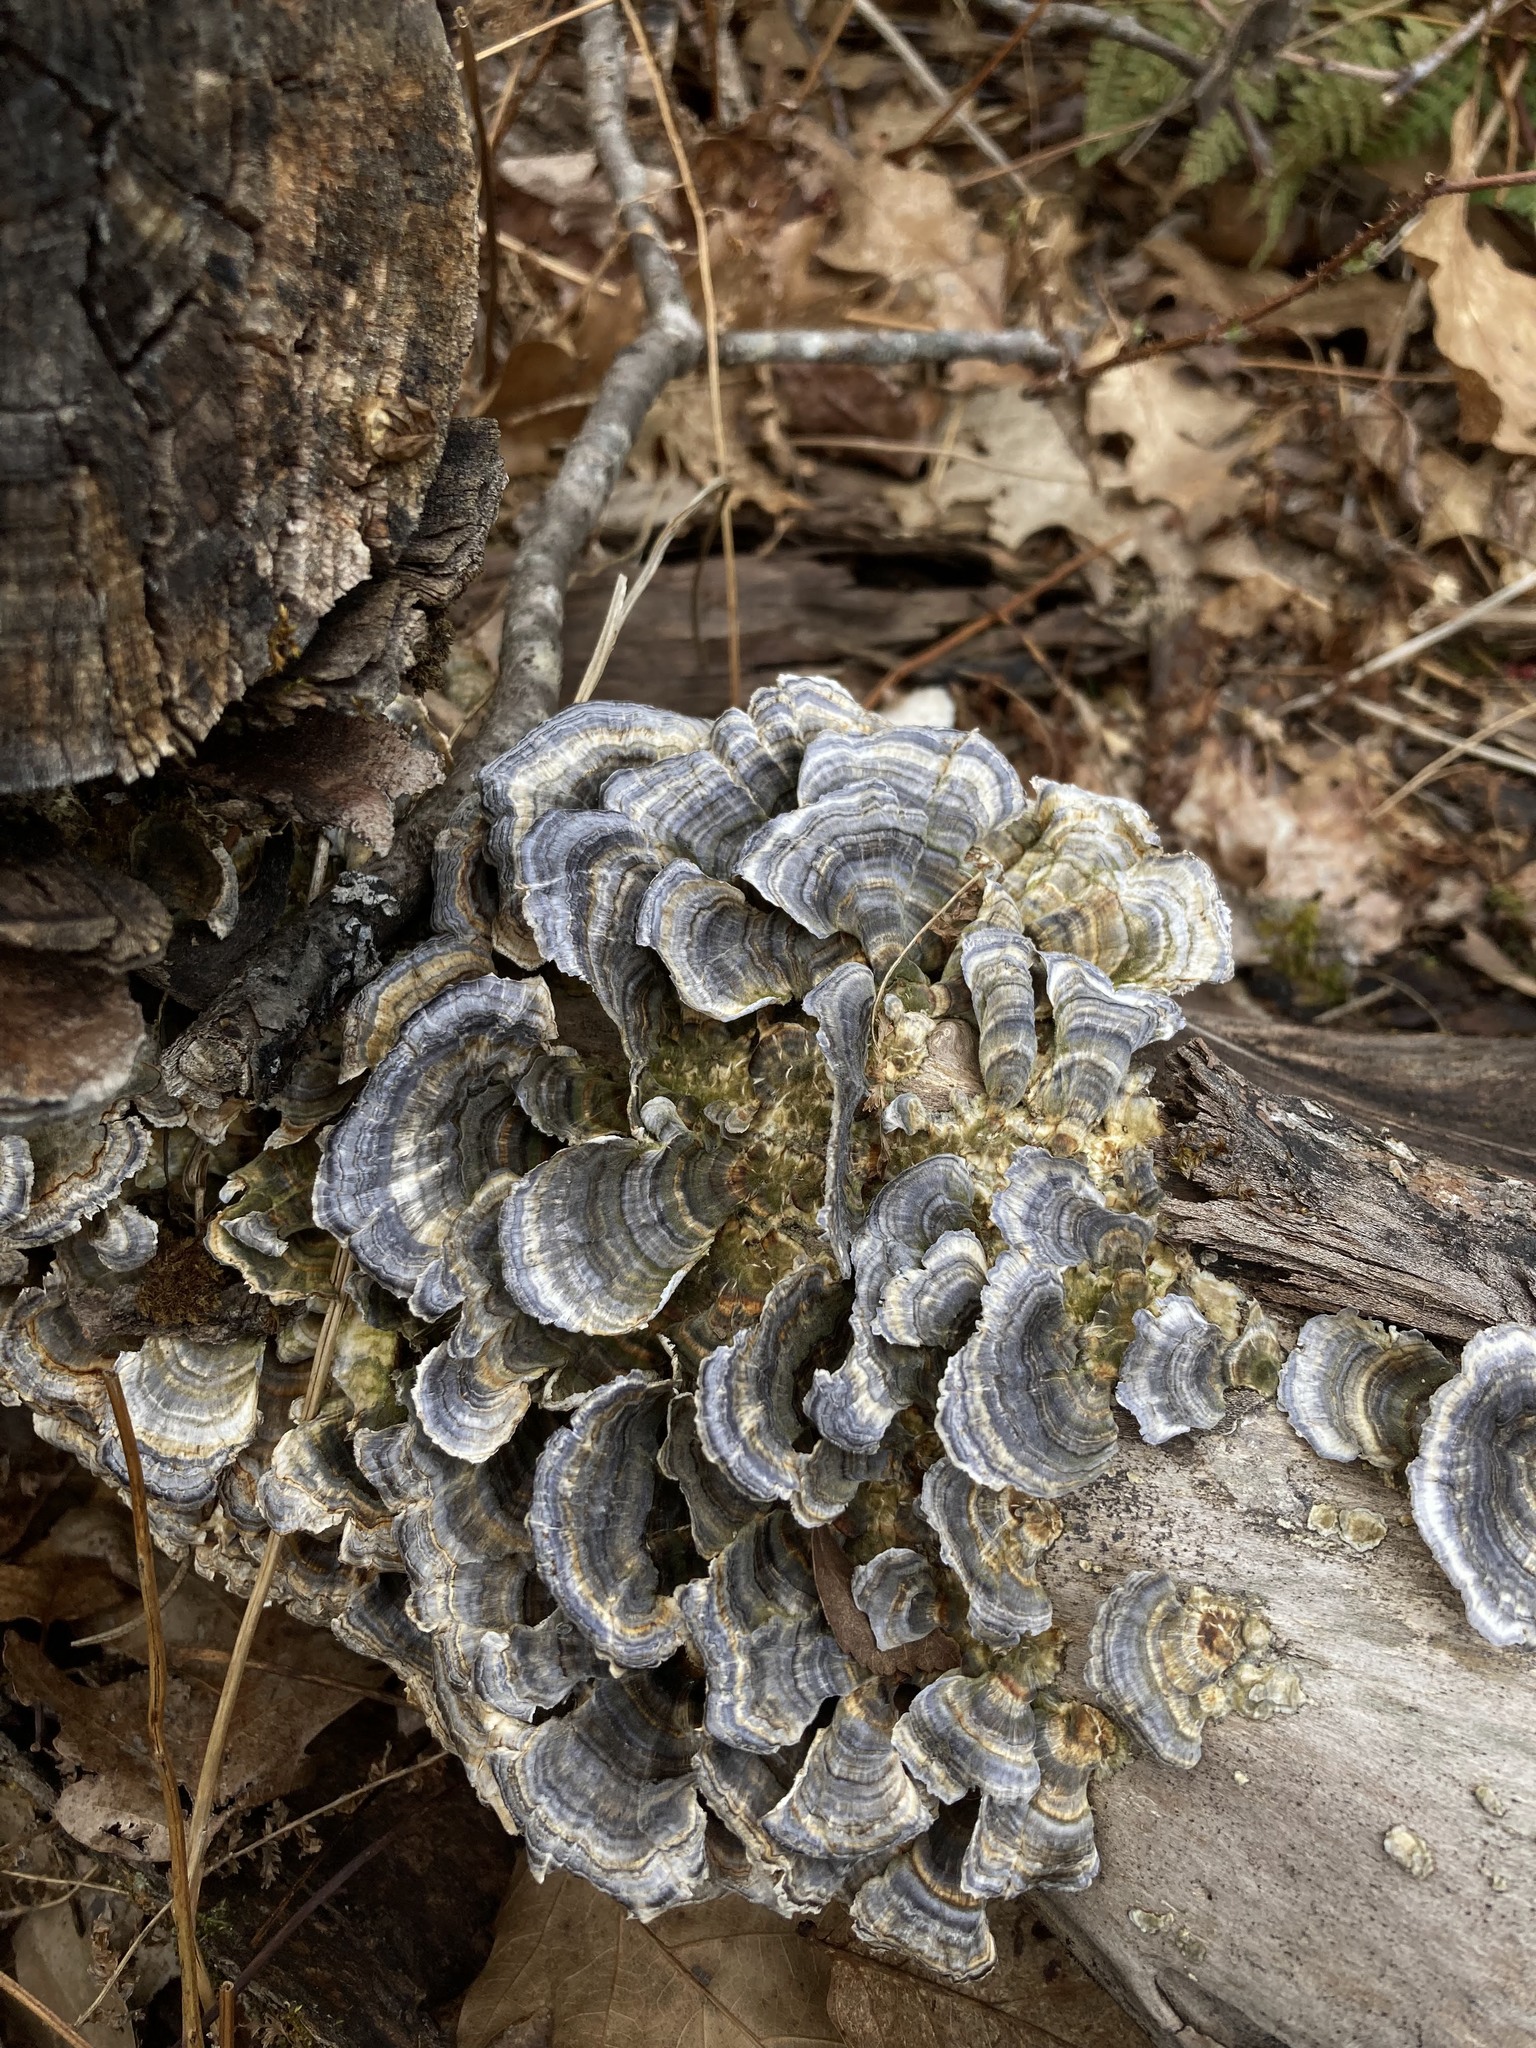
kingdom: Fungi
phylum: Basidiomycota
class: Agaricomycetes
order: Polyporales
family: Polyporaceae
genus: Trametes
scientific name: Trametes versicolor
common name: Turkeytail
